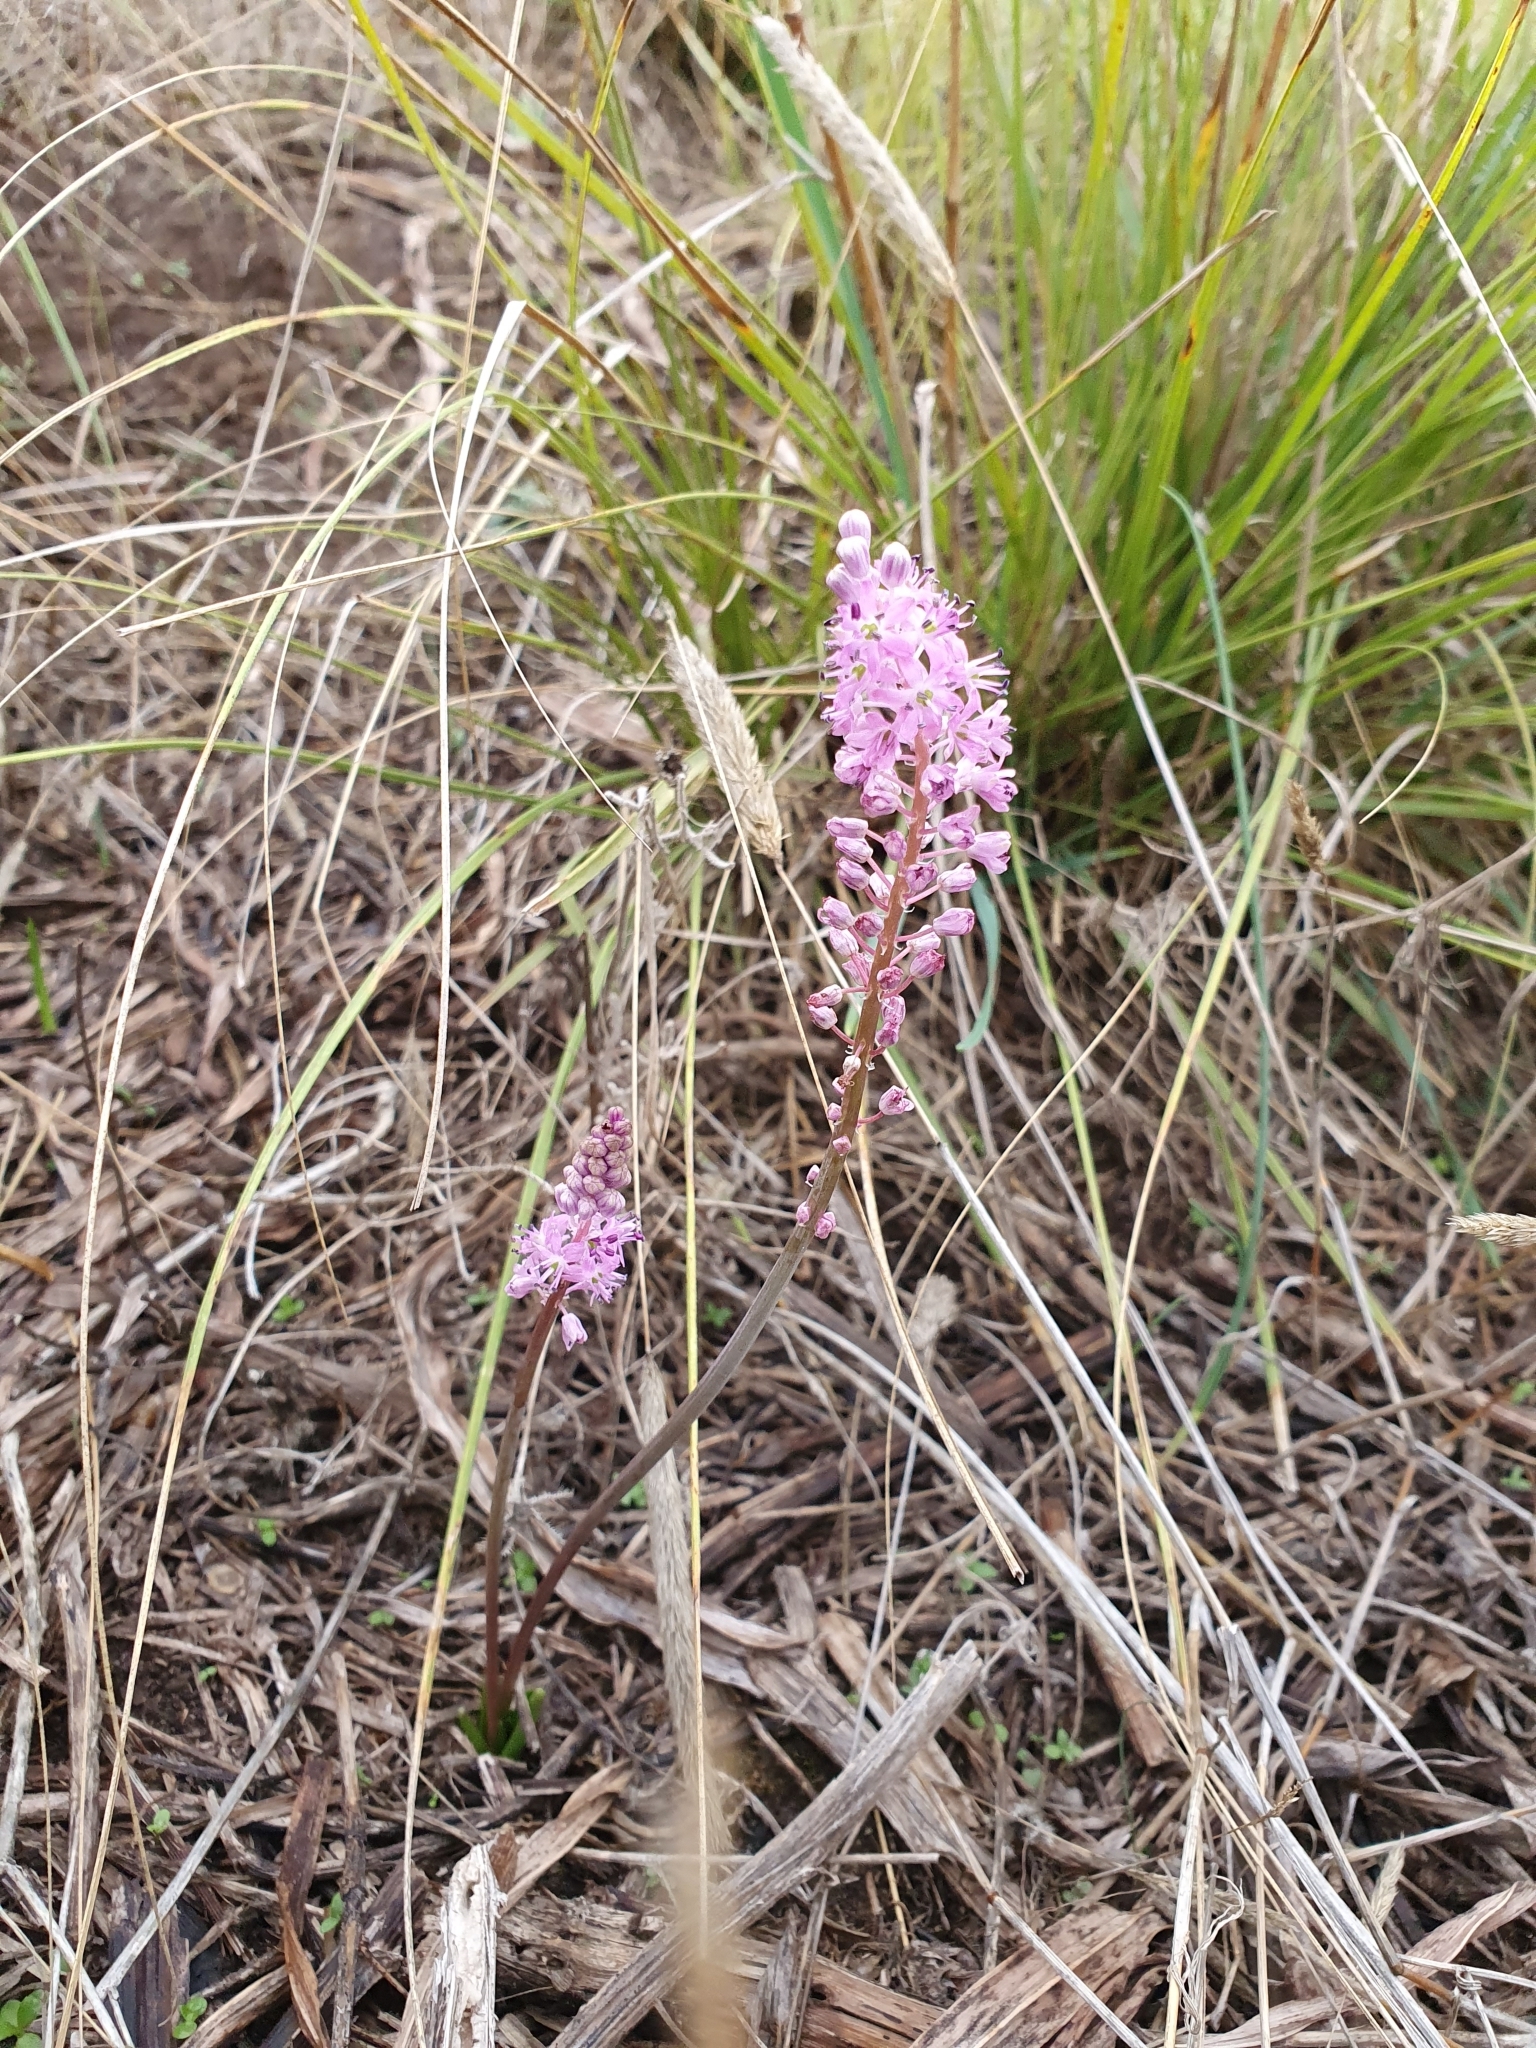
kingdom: Plantae
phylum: Tracheophyta
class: Liliopsida
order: Asparagales
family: Asparagaceae
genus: Barnardia
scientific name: Barnardia numidica
